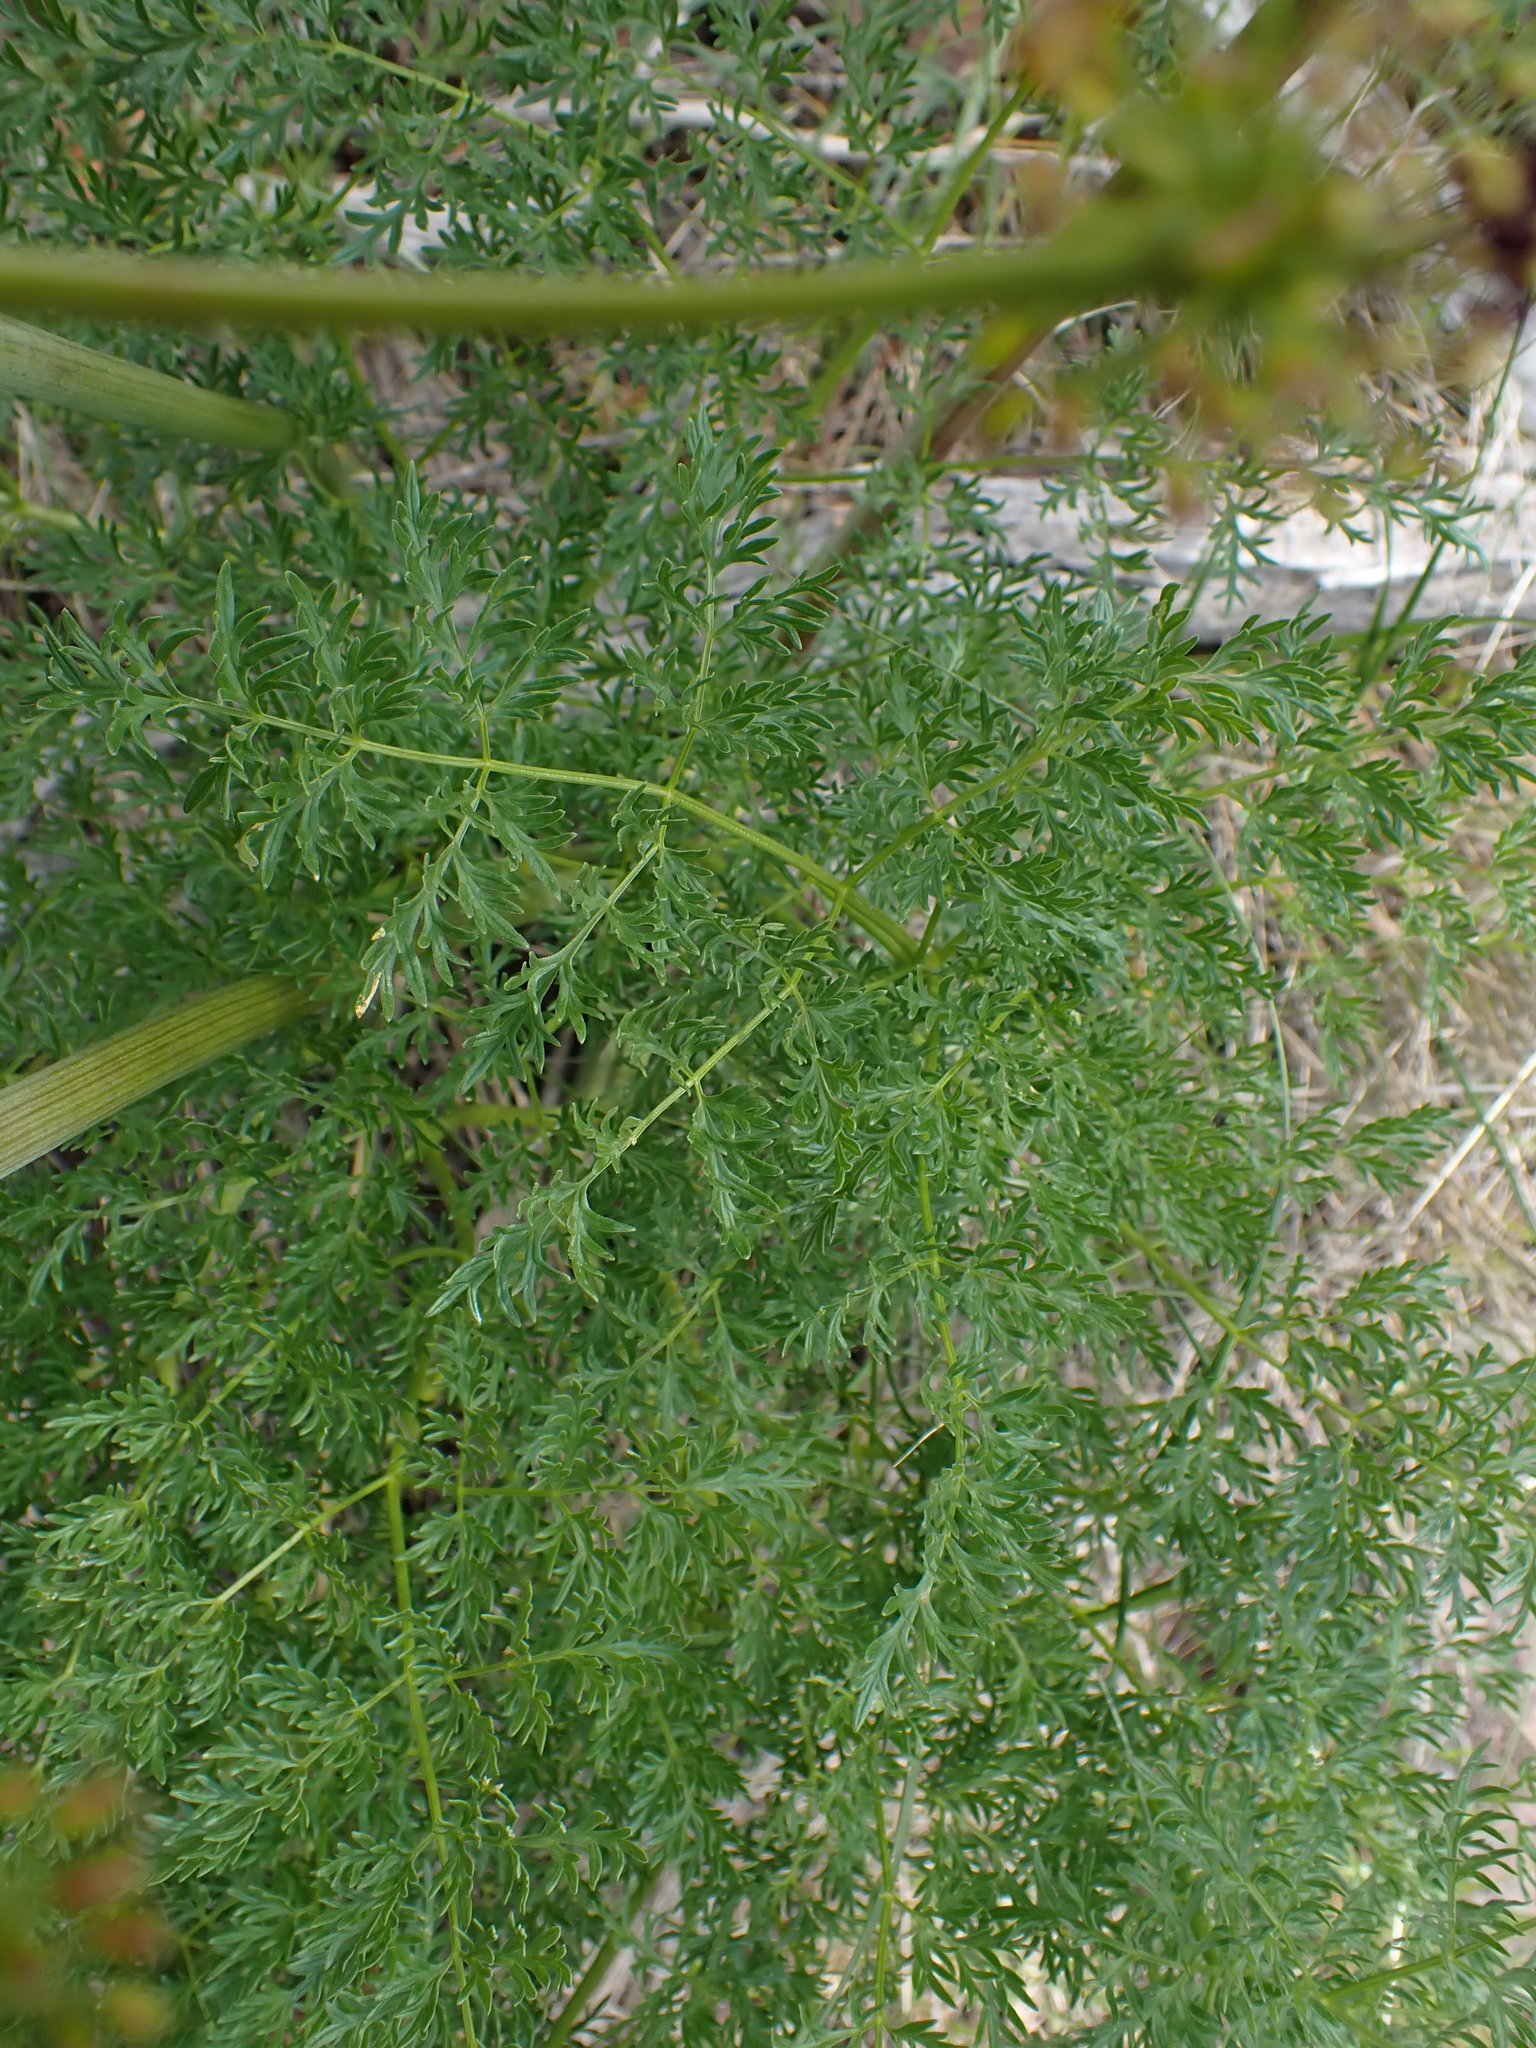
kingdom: Plantae
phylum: Tracheophyta
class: Magnoliopsida
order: Apiales
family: Apiaceae
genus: Lomatium
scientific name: Lomatium multifidum
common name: Carrot-leaved biscuitroot
